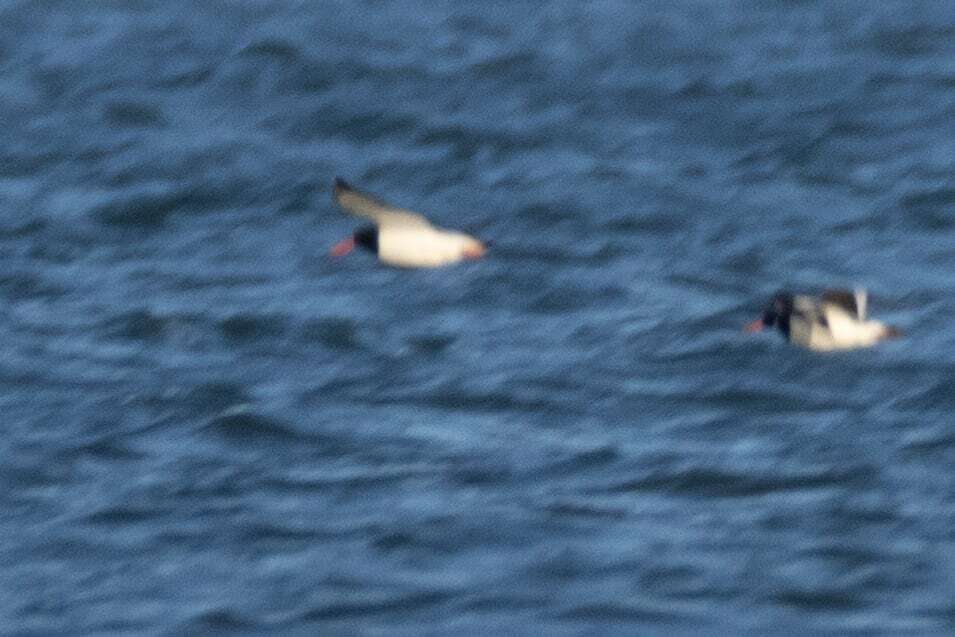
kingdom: Animalia
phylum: Chordata
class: Aves
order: Charadriiformes
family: Haematopodidae
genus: Haematopus
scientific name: Haematopus ostralegus
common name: Eurasian oystercatcher
